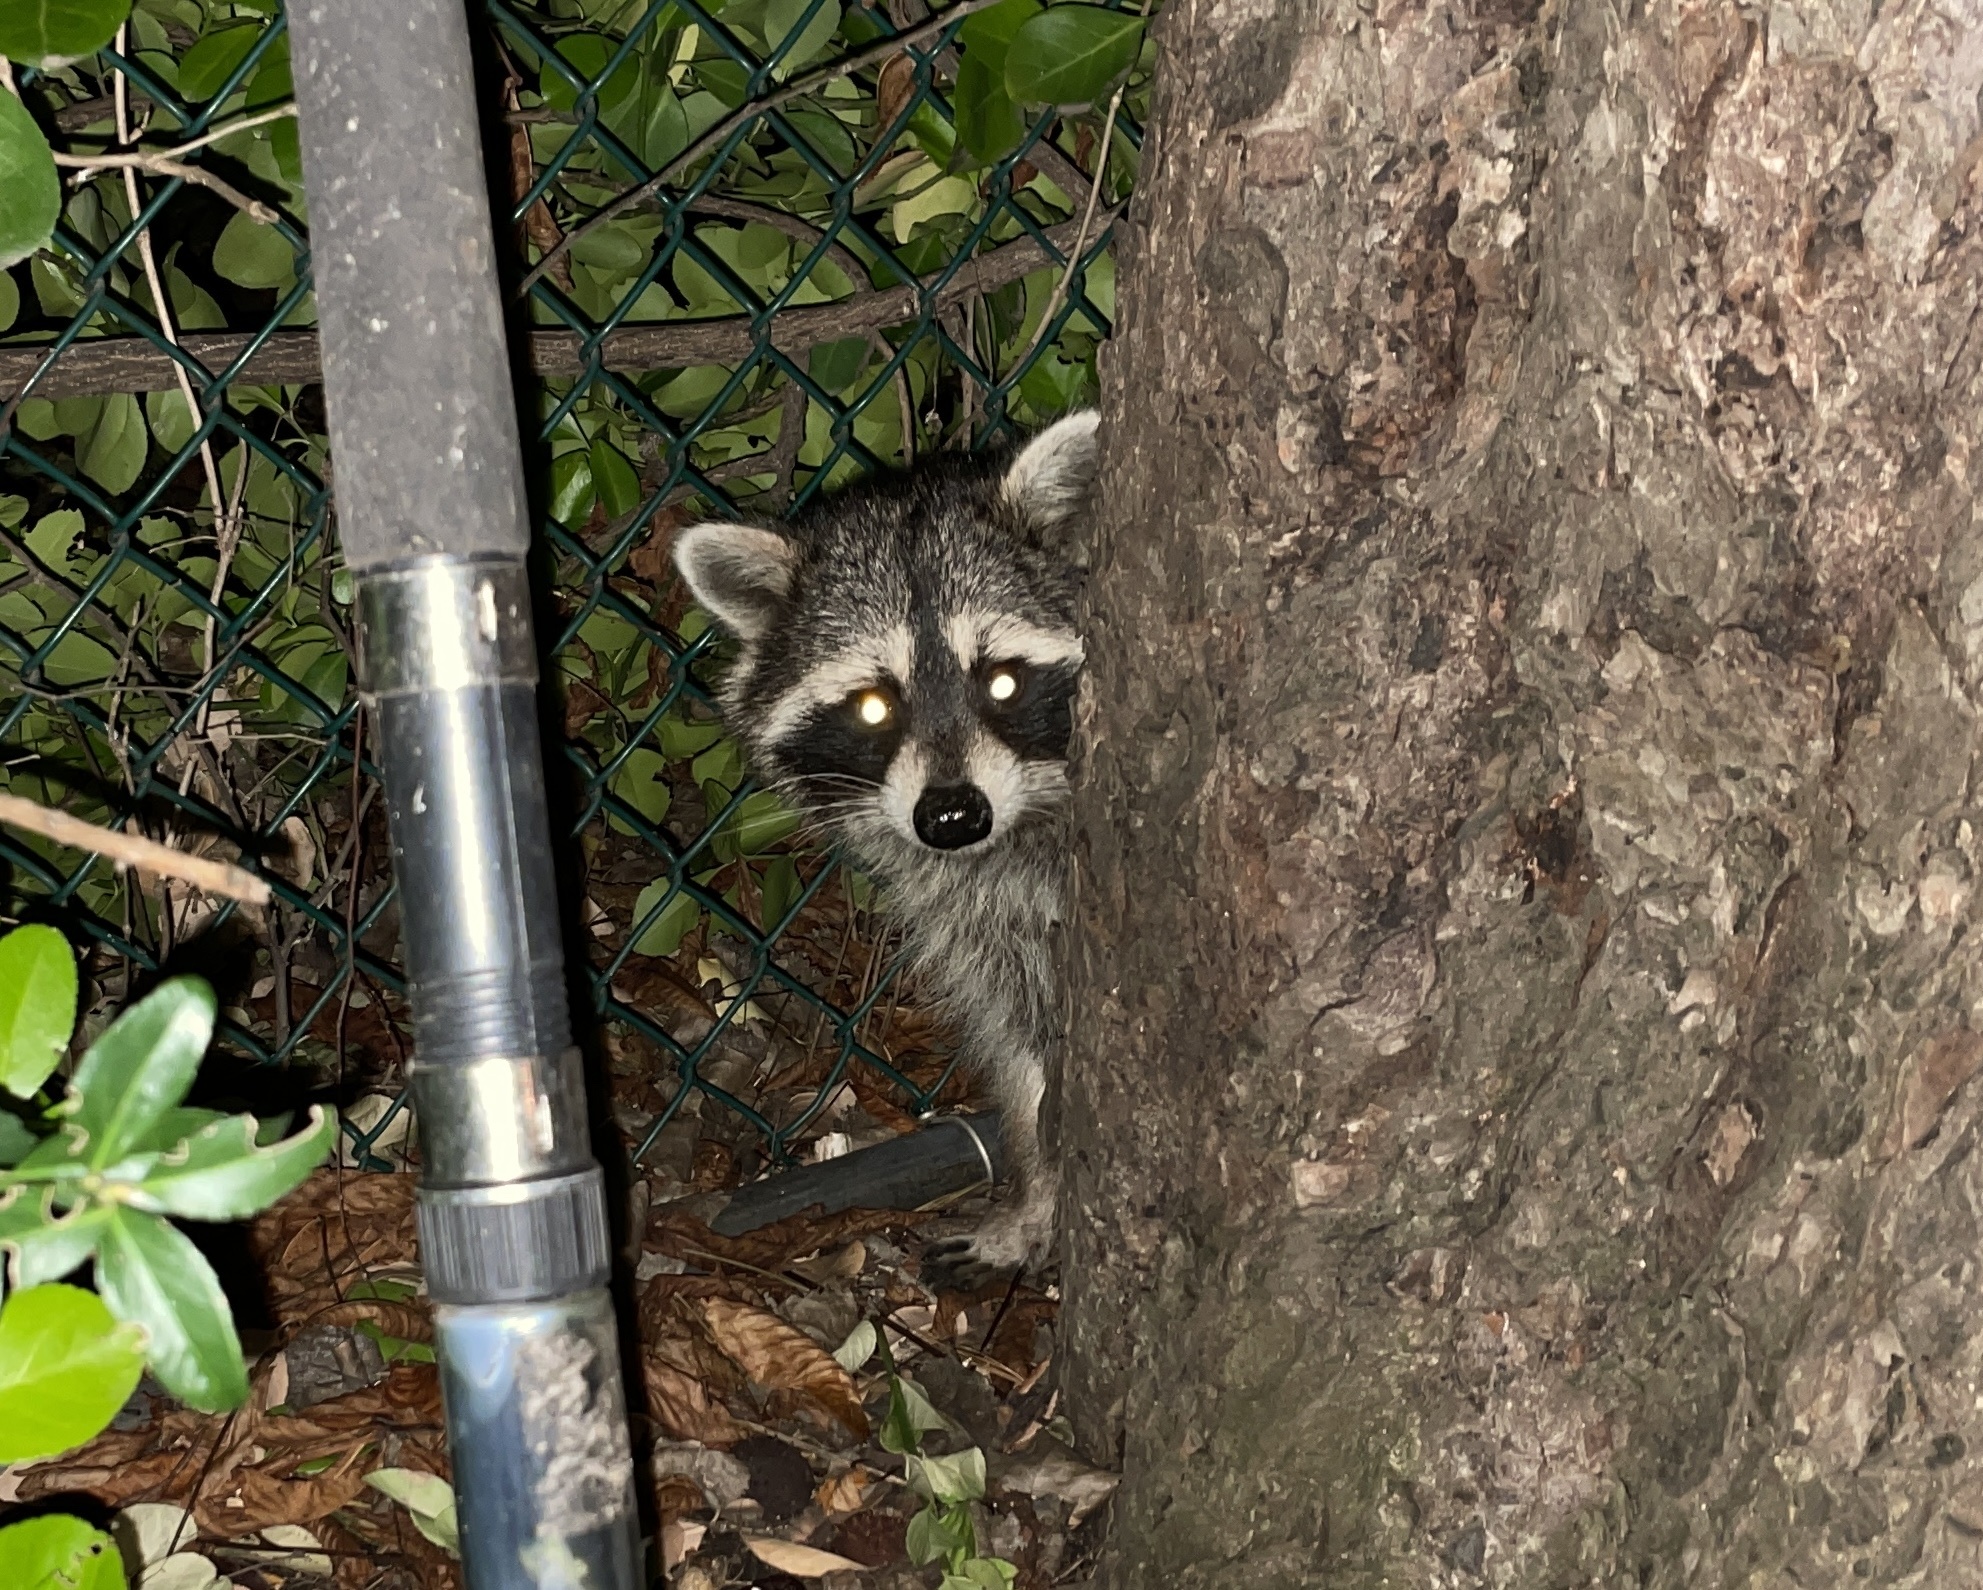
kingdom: Animalia
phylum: Chordata
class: Mammalia
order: Carnivora
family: Procyonidae
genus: Procyon
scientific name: Procyon lotor
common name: Raccoon
